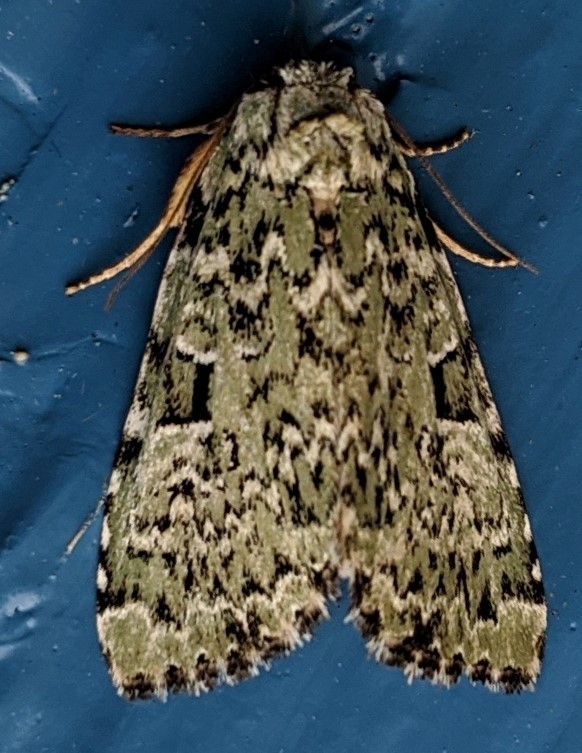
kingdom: Animalia
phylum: Arthropoda
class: Insecta
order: Lepidoptera
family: Noctuidae
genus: Leuconycta
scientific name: Leuconycta diphteroides
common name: Green leuconycta moth
